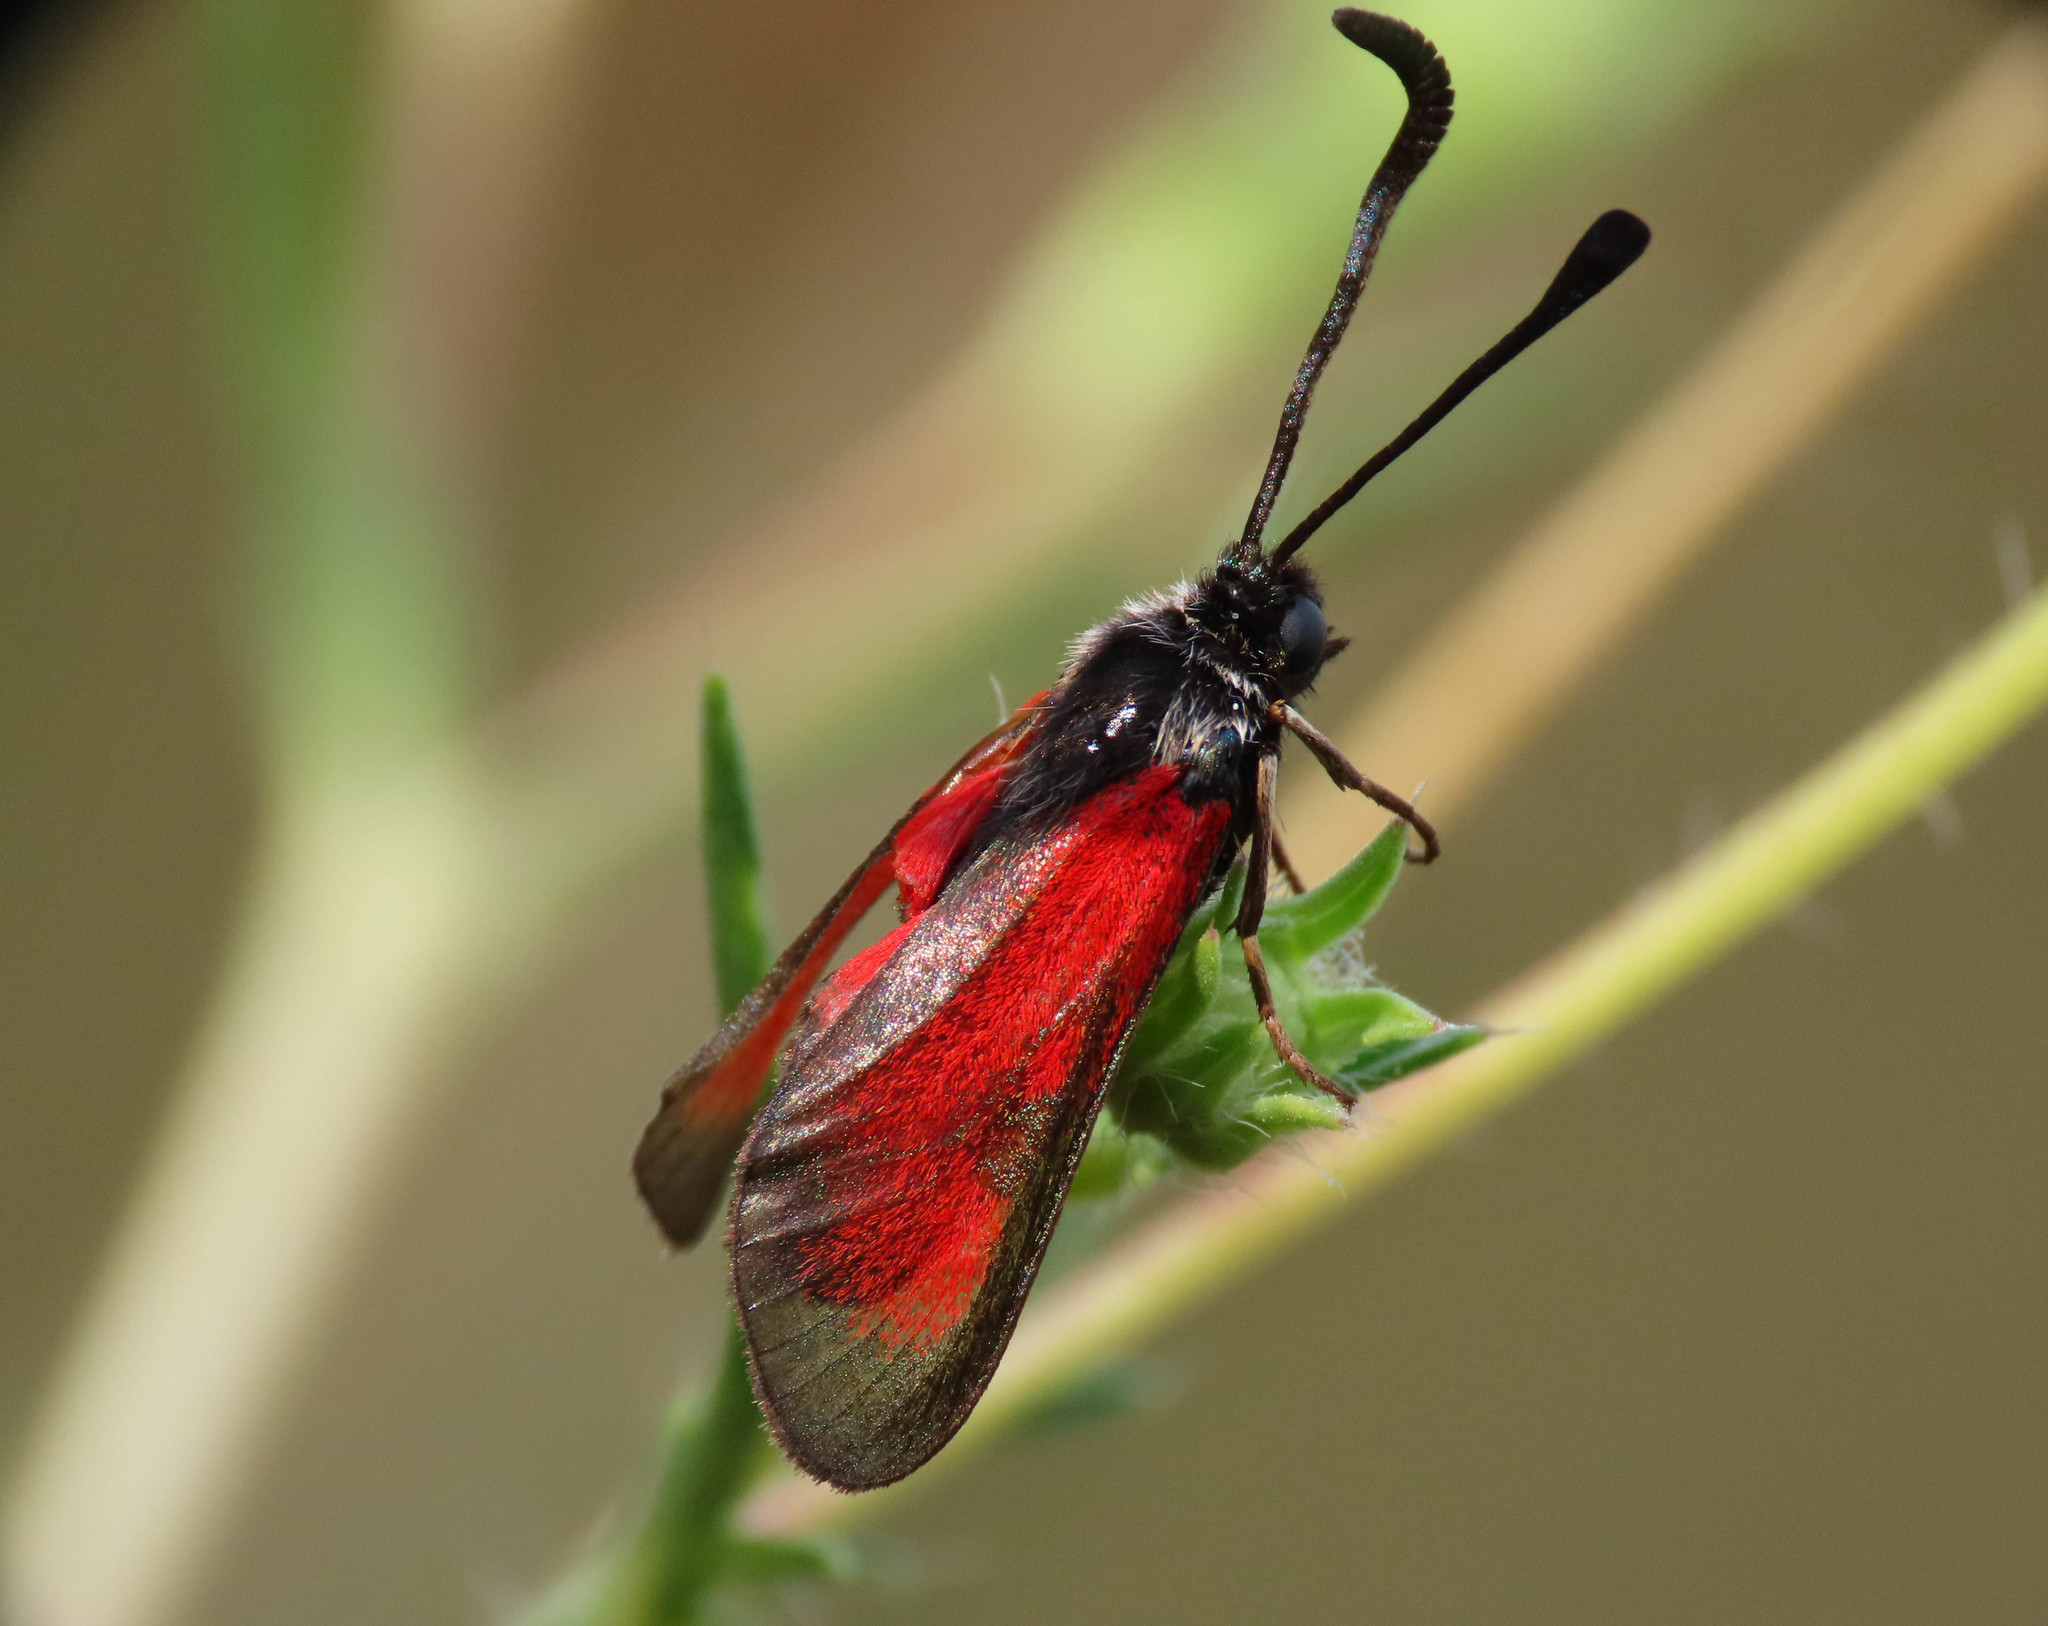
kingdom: Animalia
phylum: Arthropoda
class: Insecta
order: Lepidoptera
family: Zygaenidae
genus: Zygaena
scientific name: Zygaena erythrus
